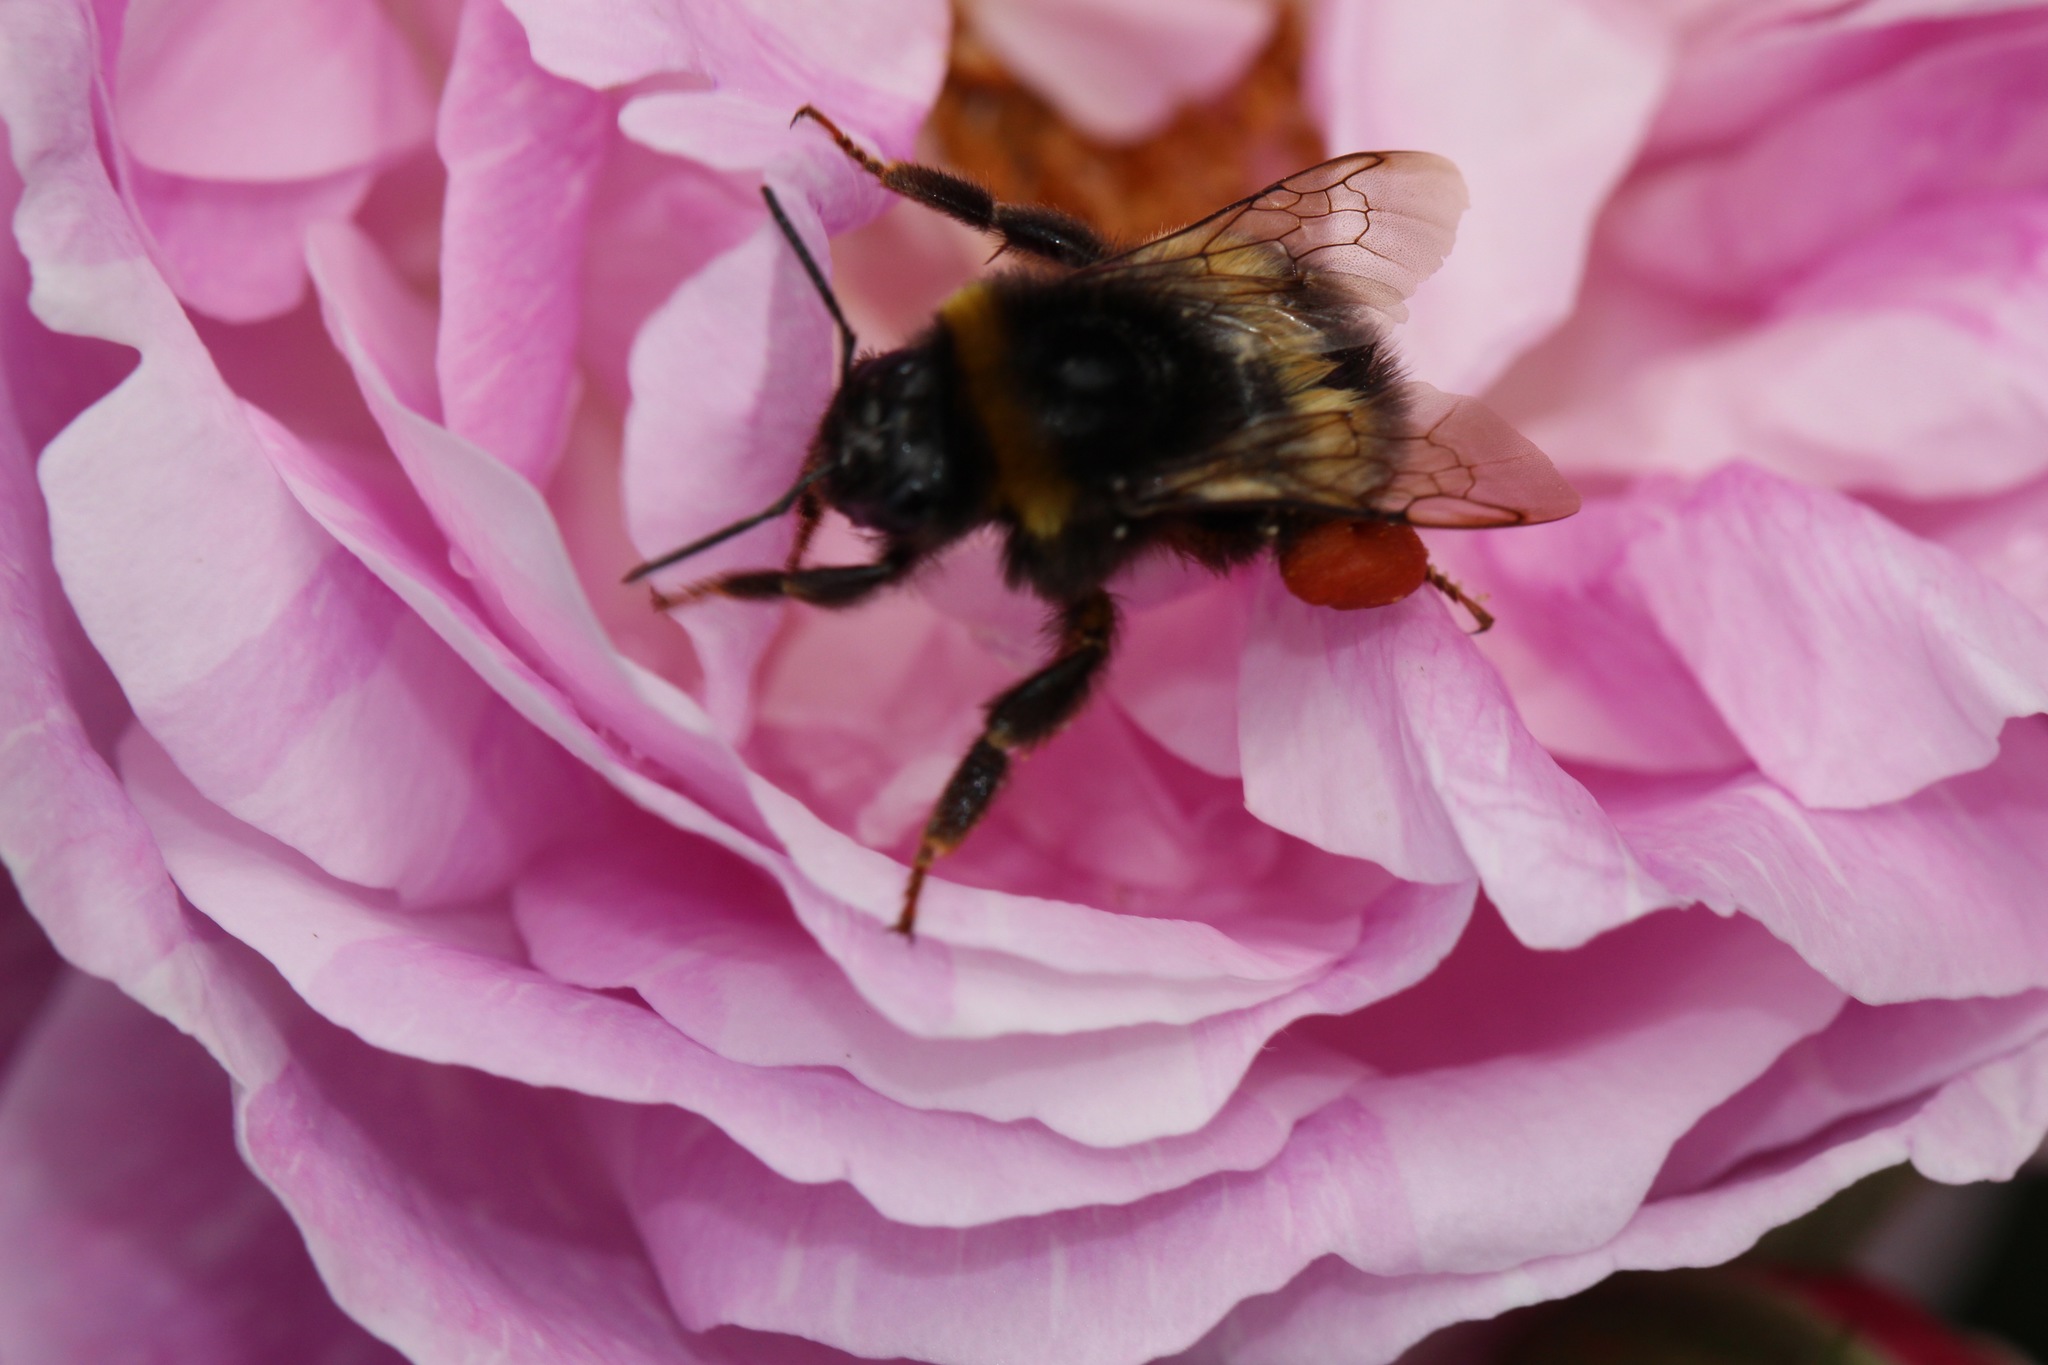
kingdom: Animalia
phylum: Arthropoda
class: Insecta
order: Hymenoptera
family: Apidae
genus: Bombus
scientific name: Bombus terrestris
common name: Buff-tailed bumblebee
